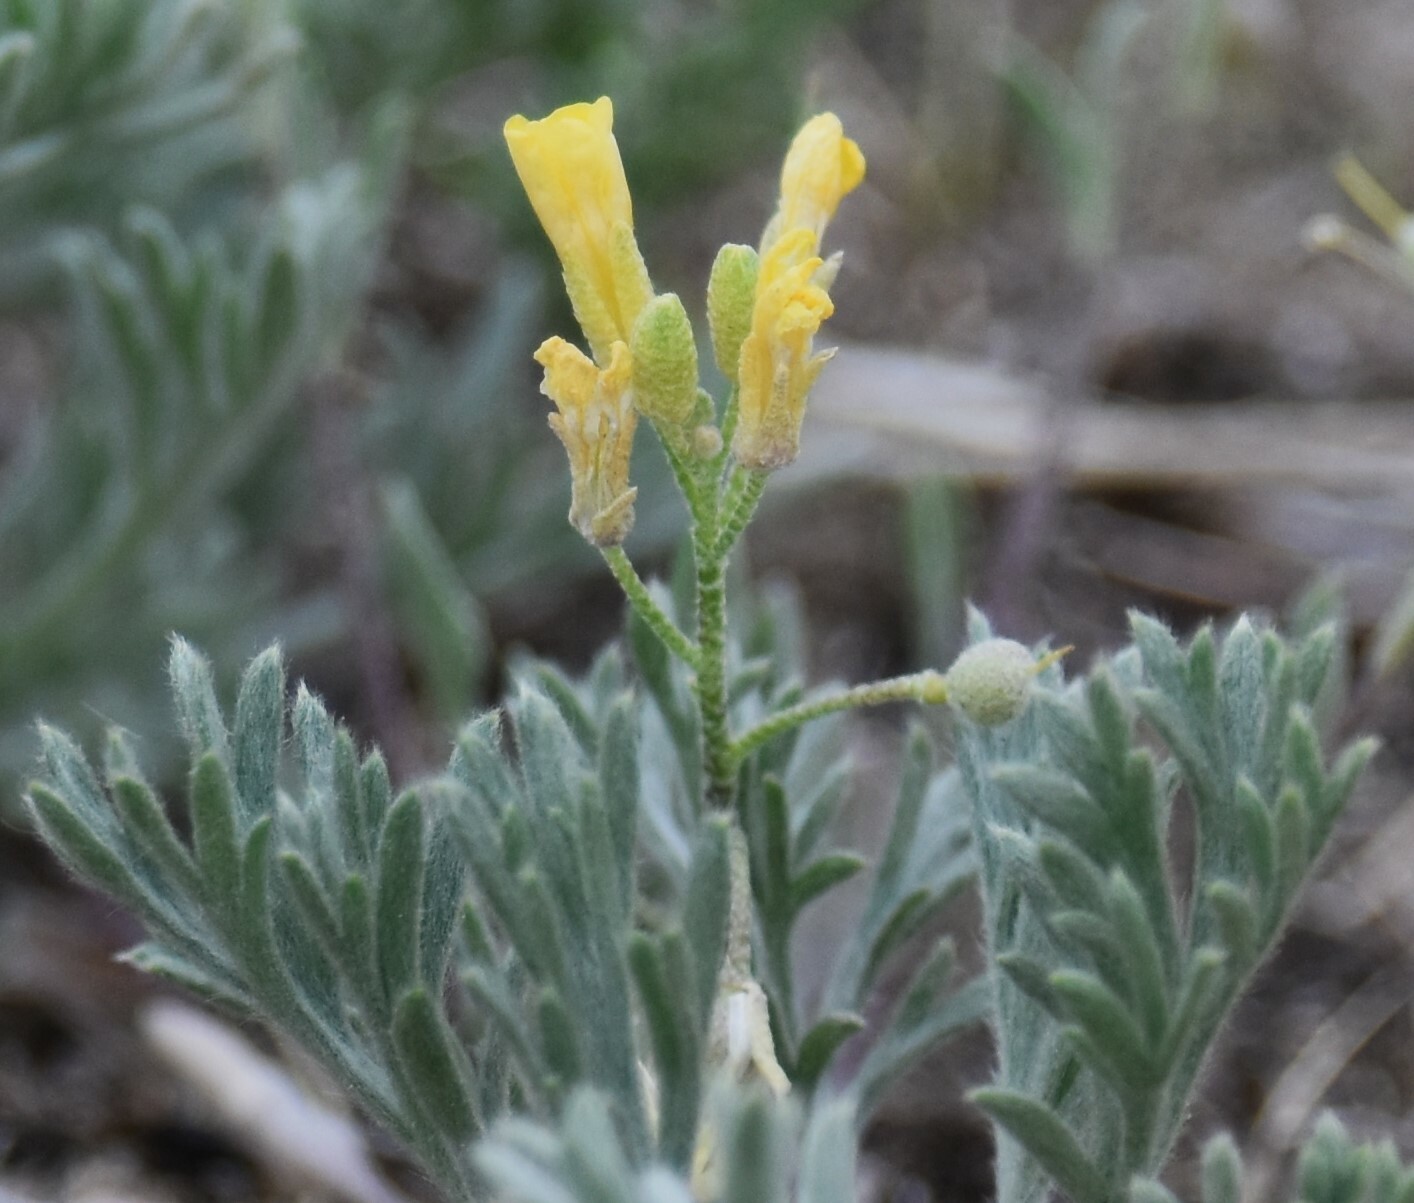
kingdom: Plantae
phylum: Tracheophyta
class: Magnoliopsida
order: Brassicales
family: Brassicaceae
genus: Physaria
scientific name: Physaria arenosa
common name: Great plains bladderpod
